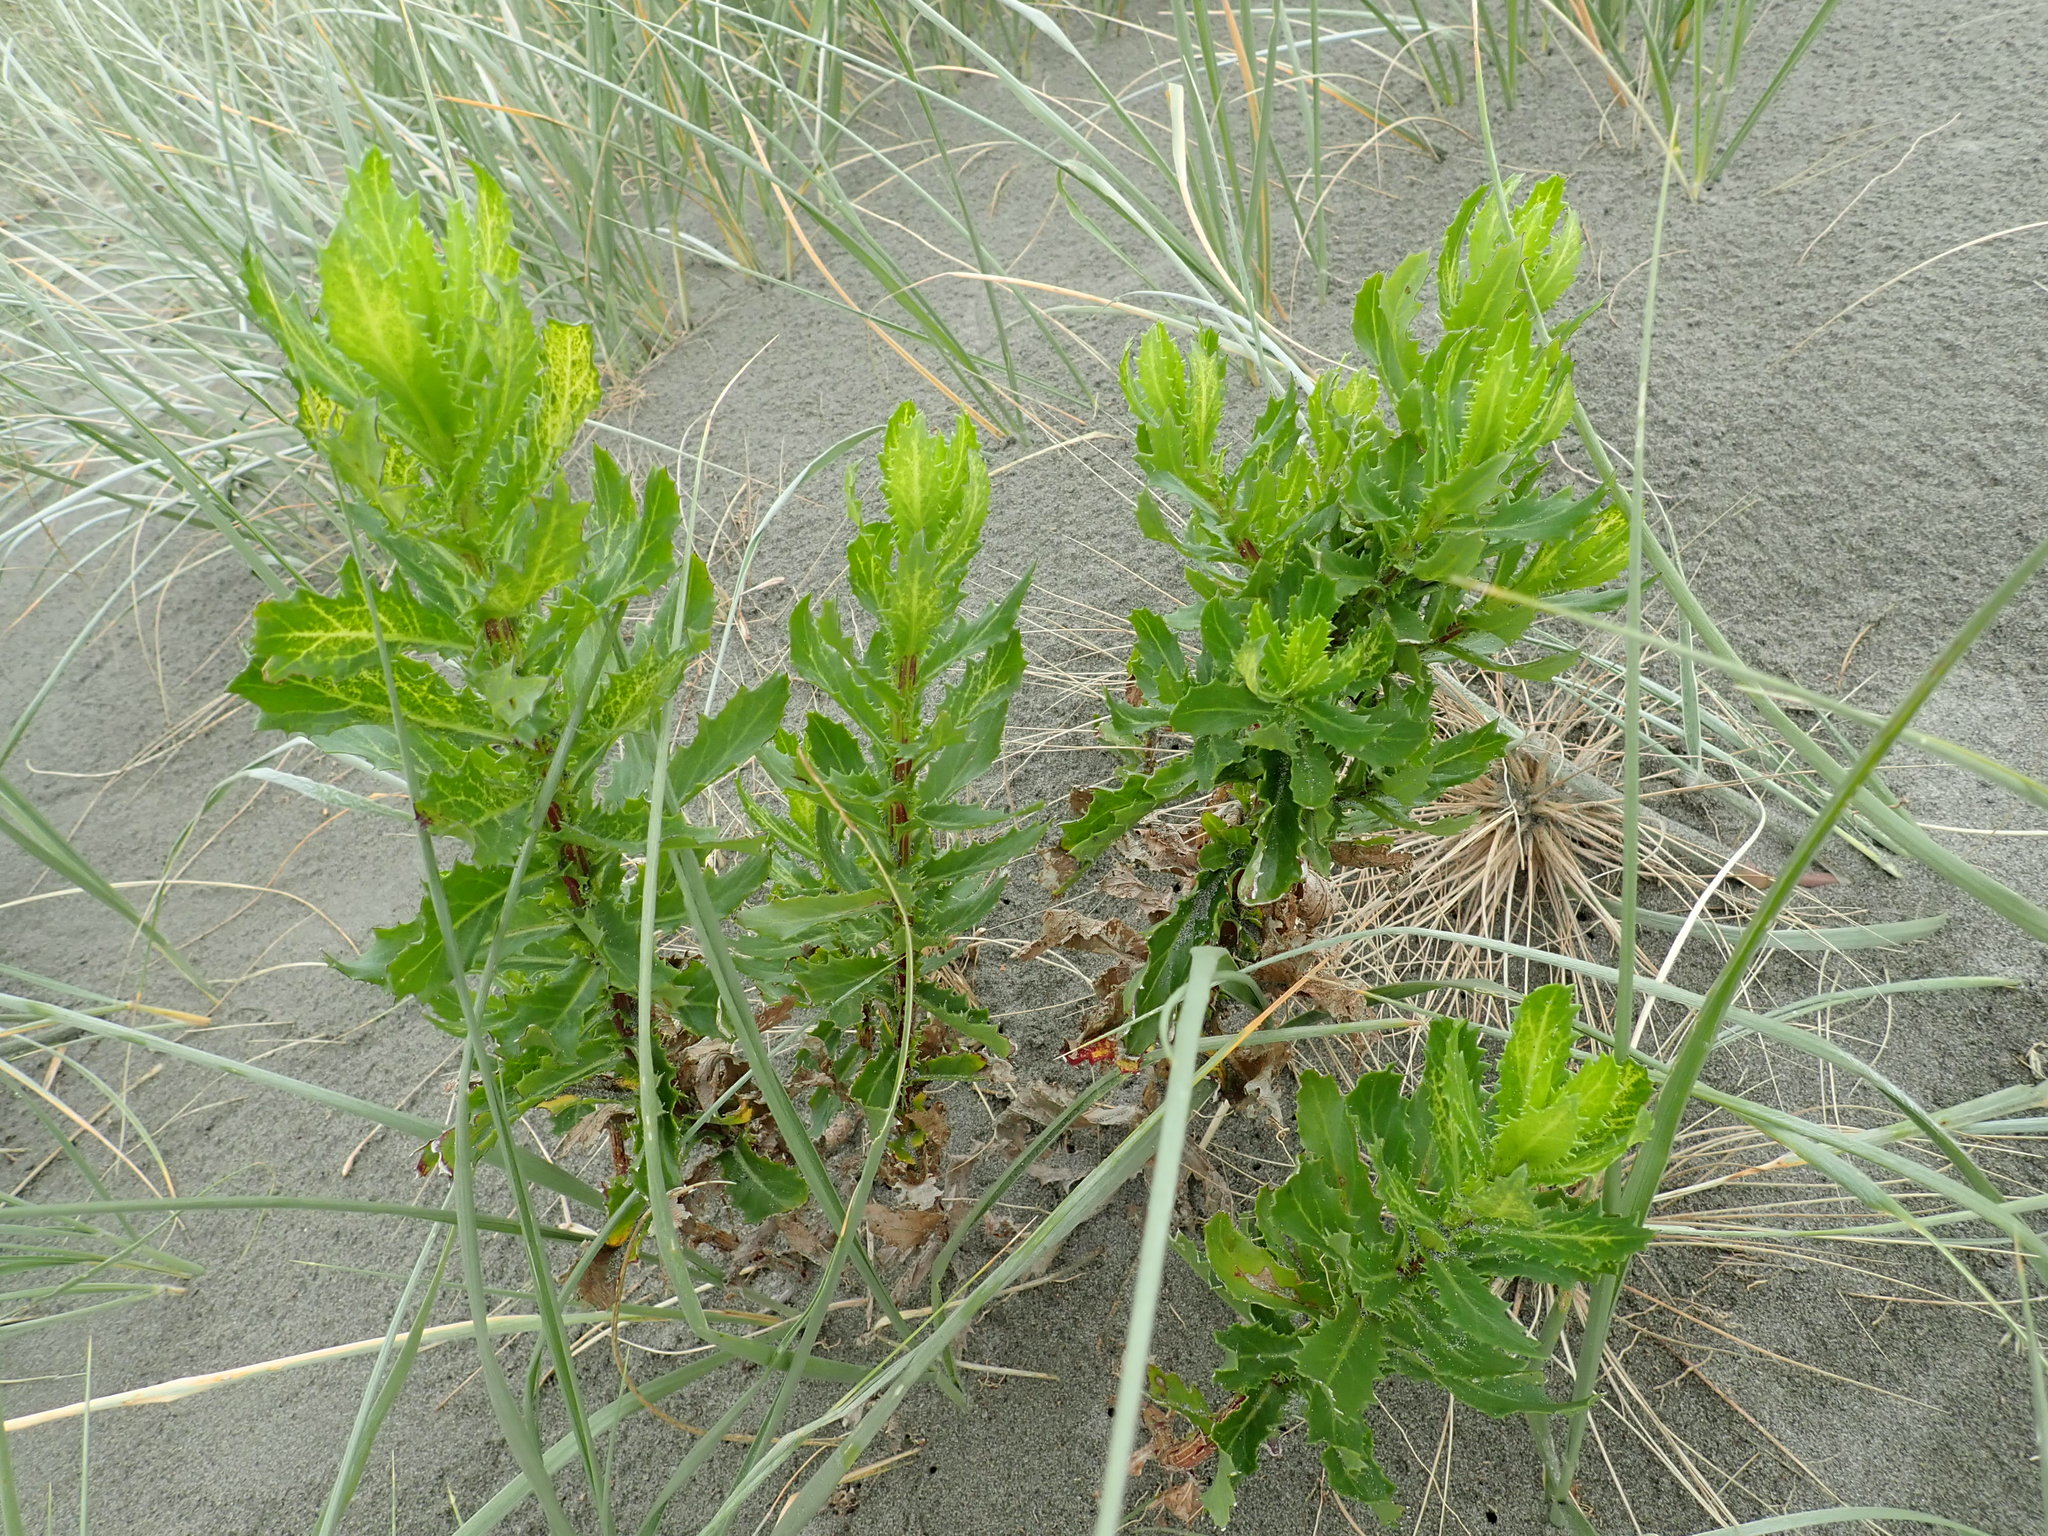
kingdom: Plantae
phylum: Tracheophyta
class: Magnoliopsida
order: Asterales
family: Asteraceae
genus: Senecio
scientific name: Senecio glastifolius
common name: Woad-leaved ragwort
